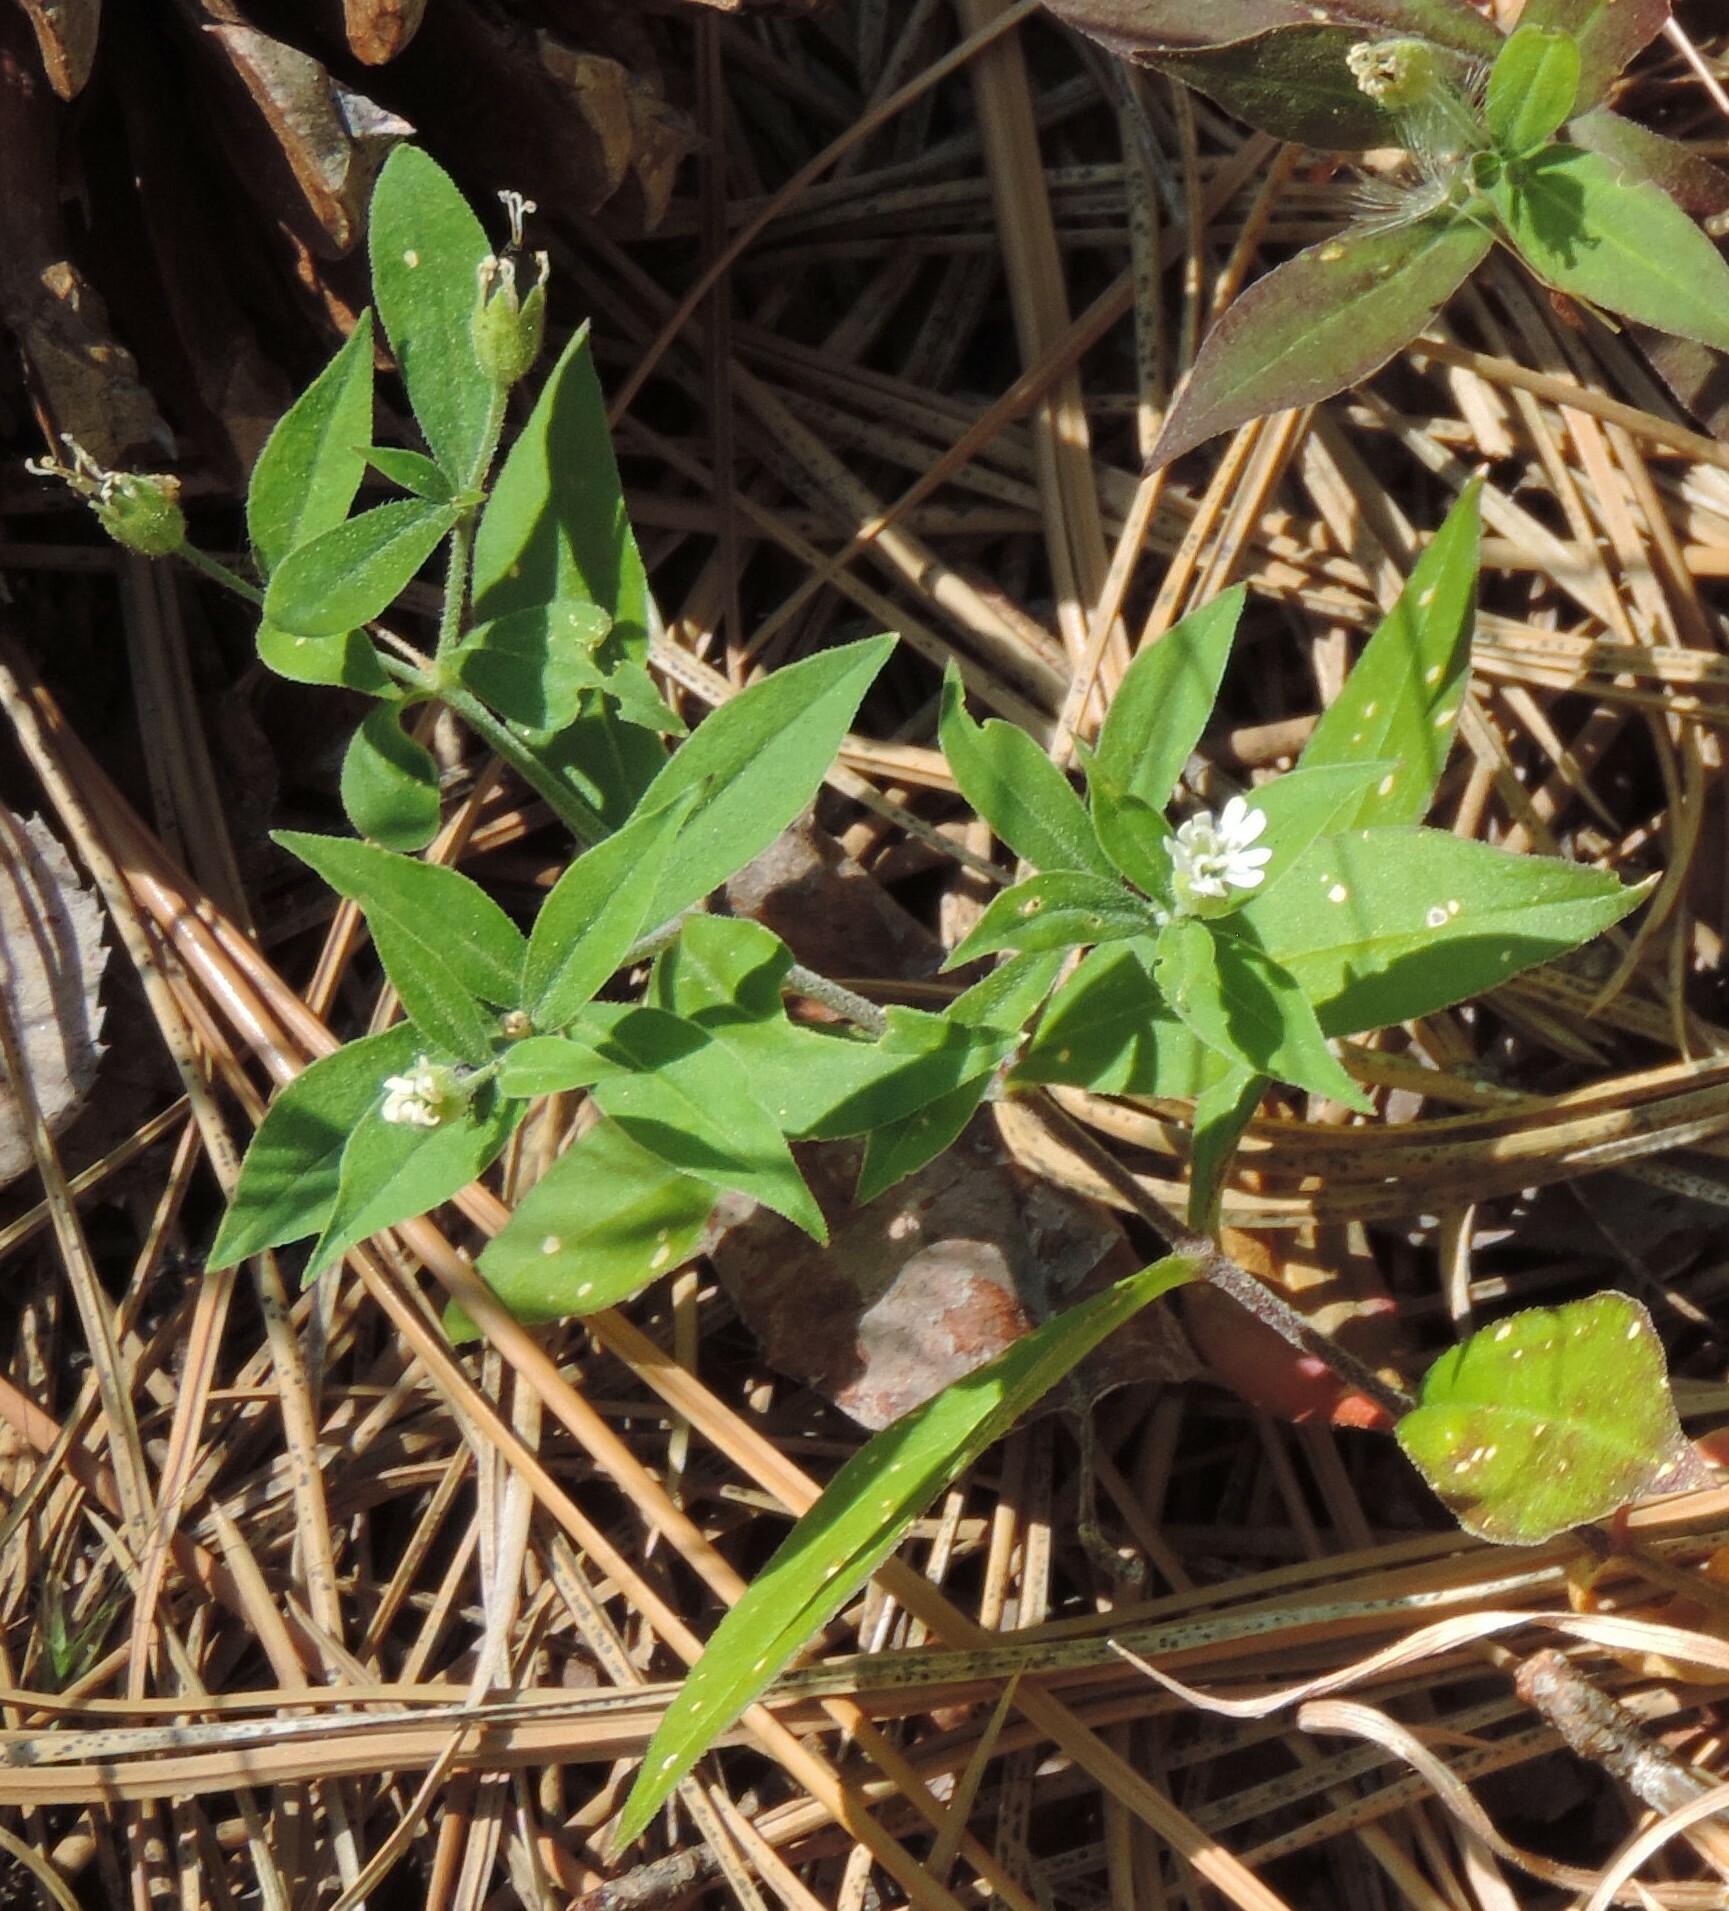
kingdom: Plantae
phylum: Tracheophyta
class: Magnoliopsida
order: Caryophyllales
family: Caryophyllaceae
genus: Silene
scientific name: Silene menziesii
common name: Menzies's catchfly
